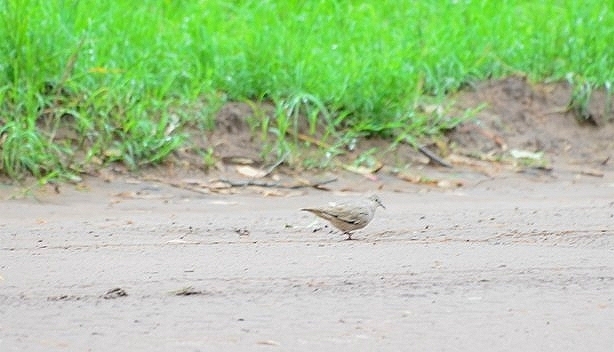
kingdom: Animalia
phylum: Chordata
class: Aves
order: Columbiformes
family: Columbidae
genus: Columbina
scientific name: Columbina picui
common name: Picui ground dove
